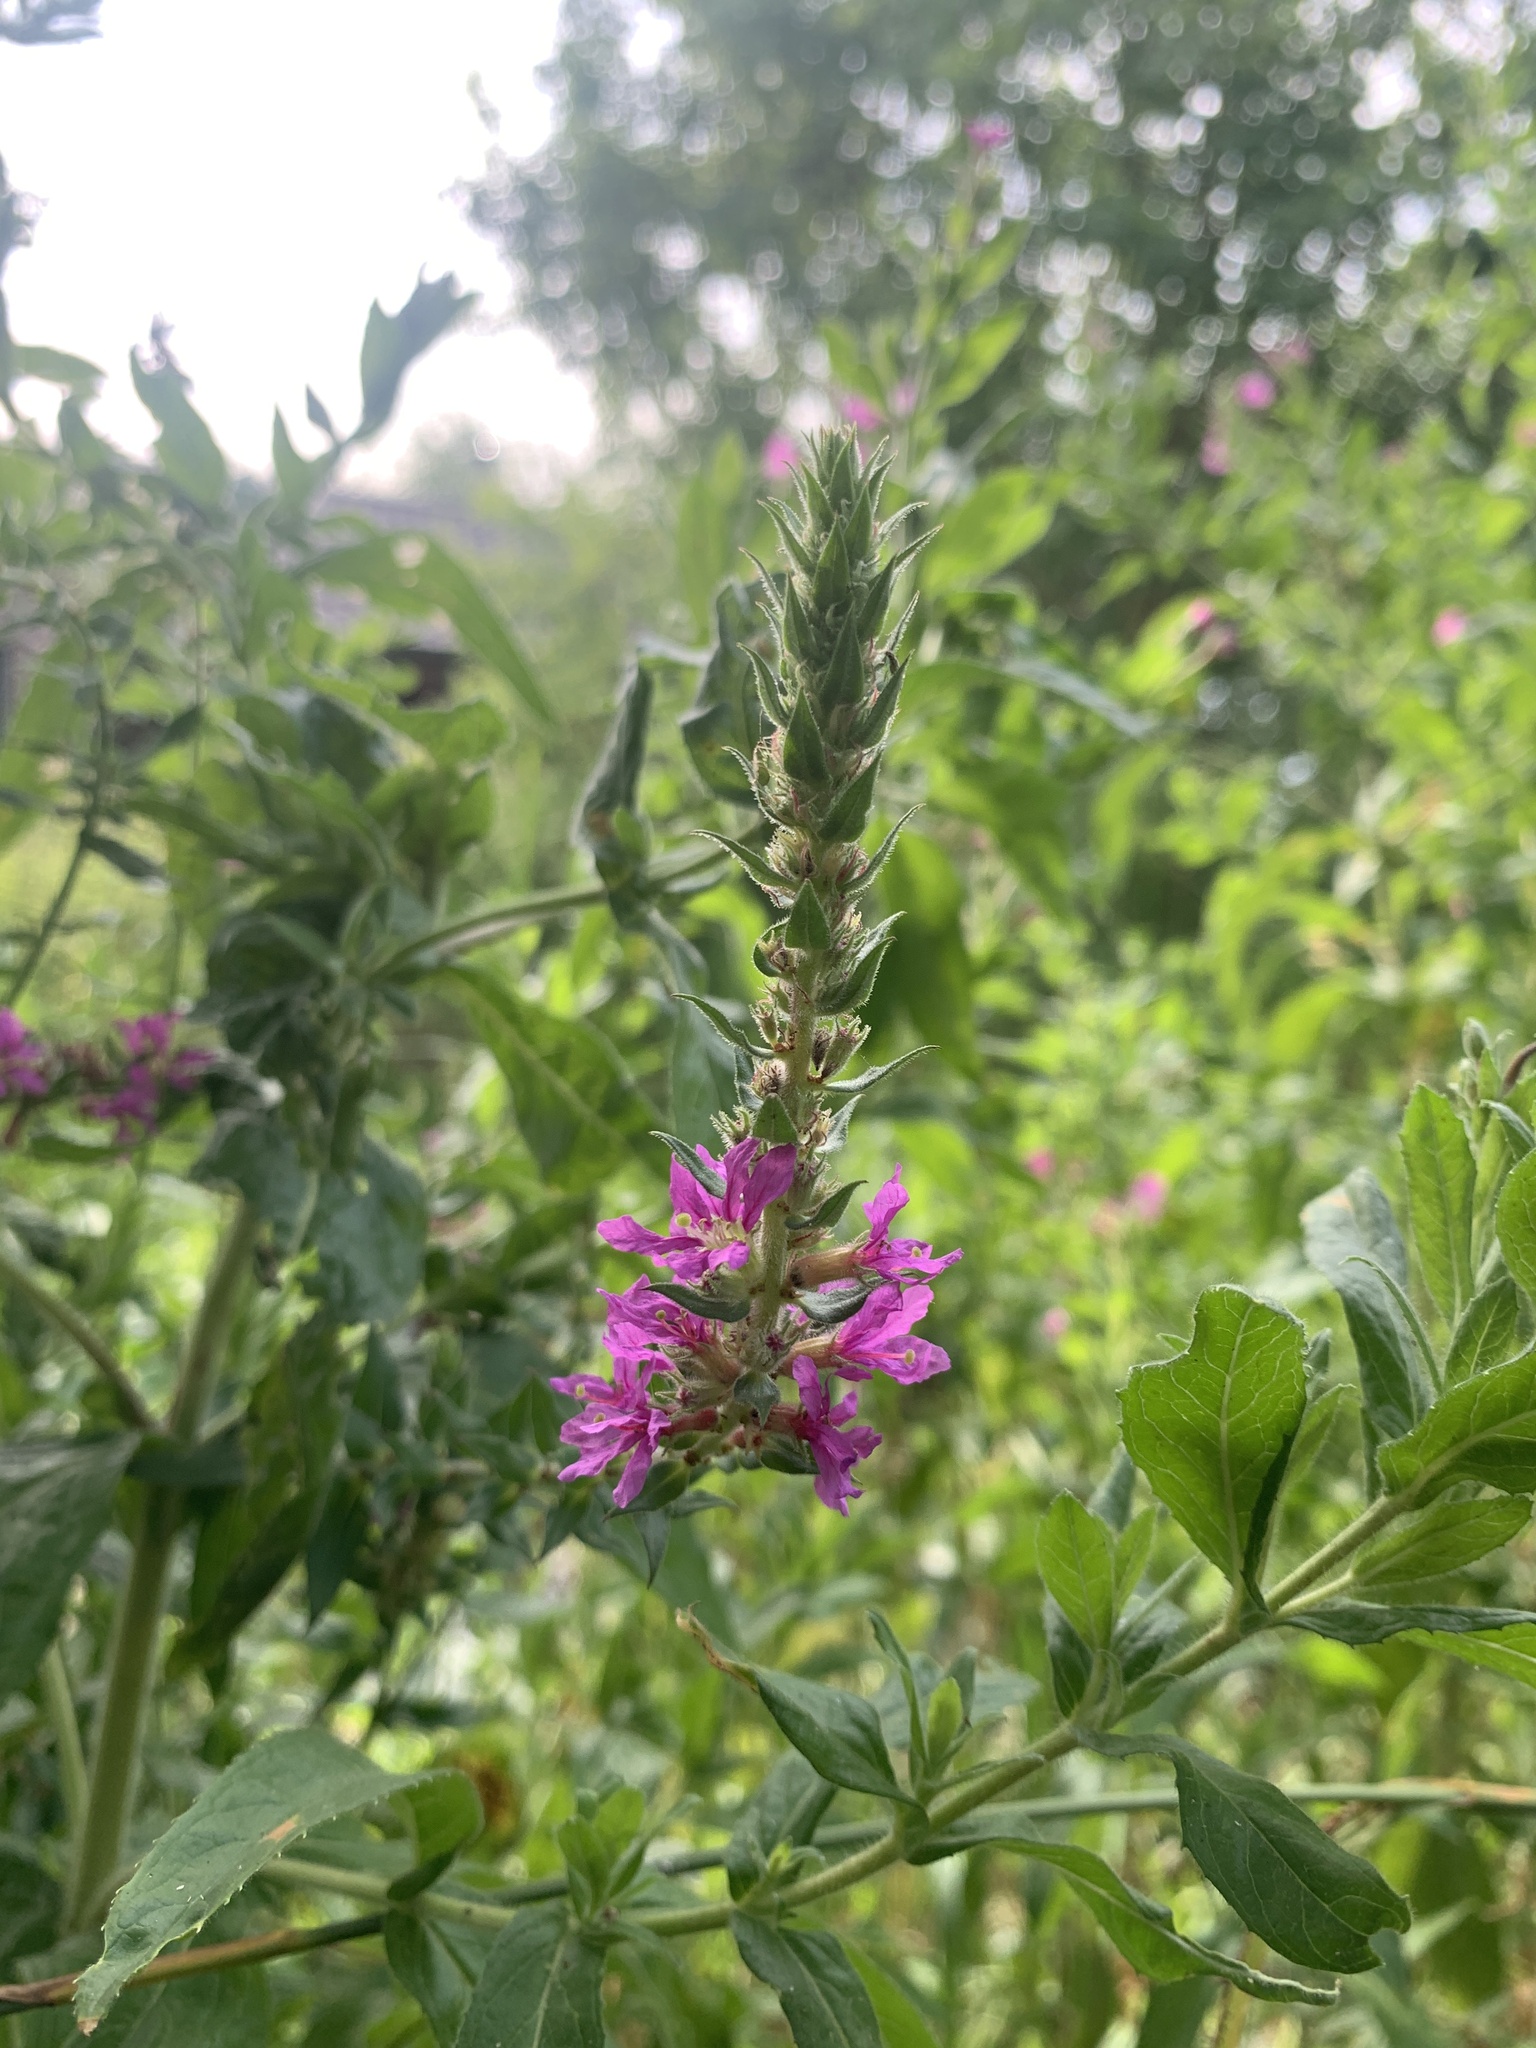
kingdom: Plantae
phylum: Tracheophyta
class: Magnoliopsida
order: Myrtales
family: Lythraceae
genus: Lythrum
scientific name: Lythrum salicaria
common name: Purple loosestrife
